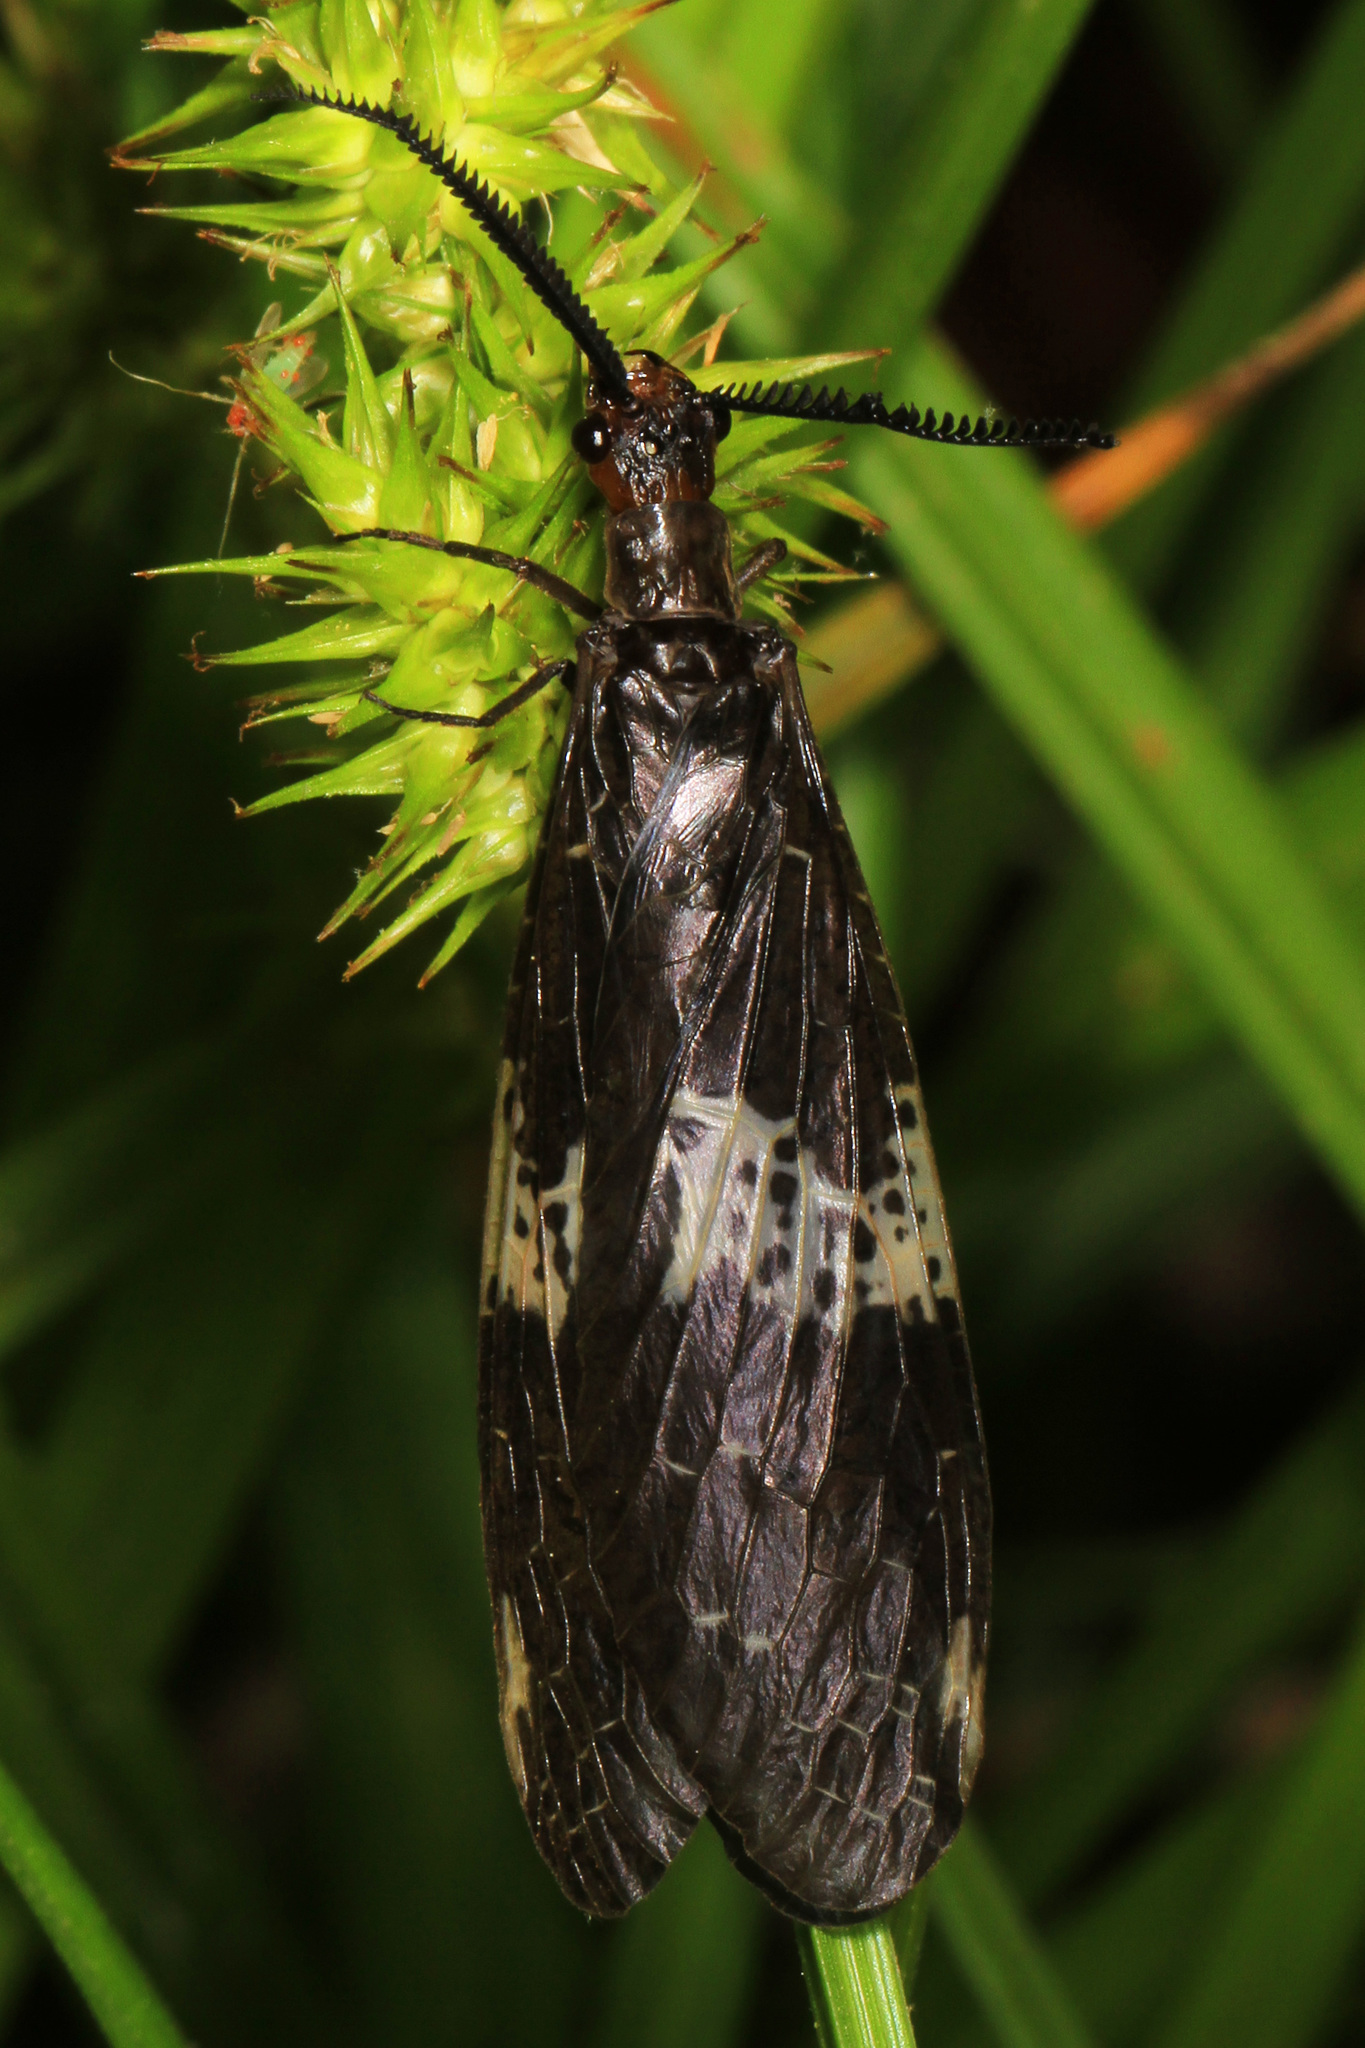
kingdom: Animalia
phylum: Arthropoda
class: Insecta
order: Megaloptera
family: Corydalidae
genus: Nigronia
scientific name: Nigronia fasciata
